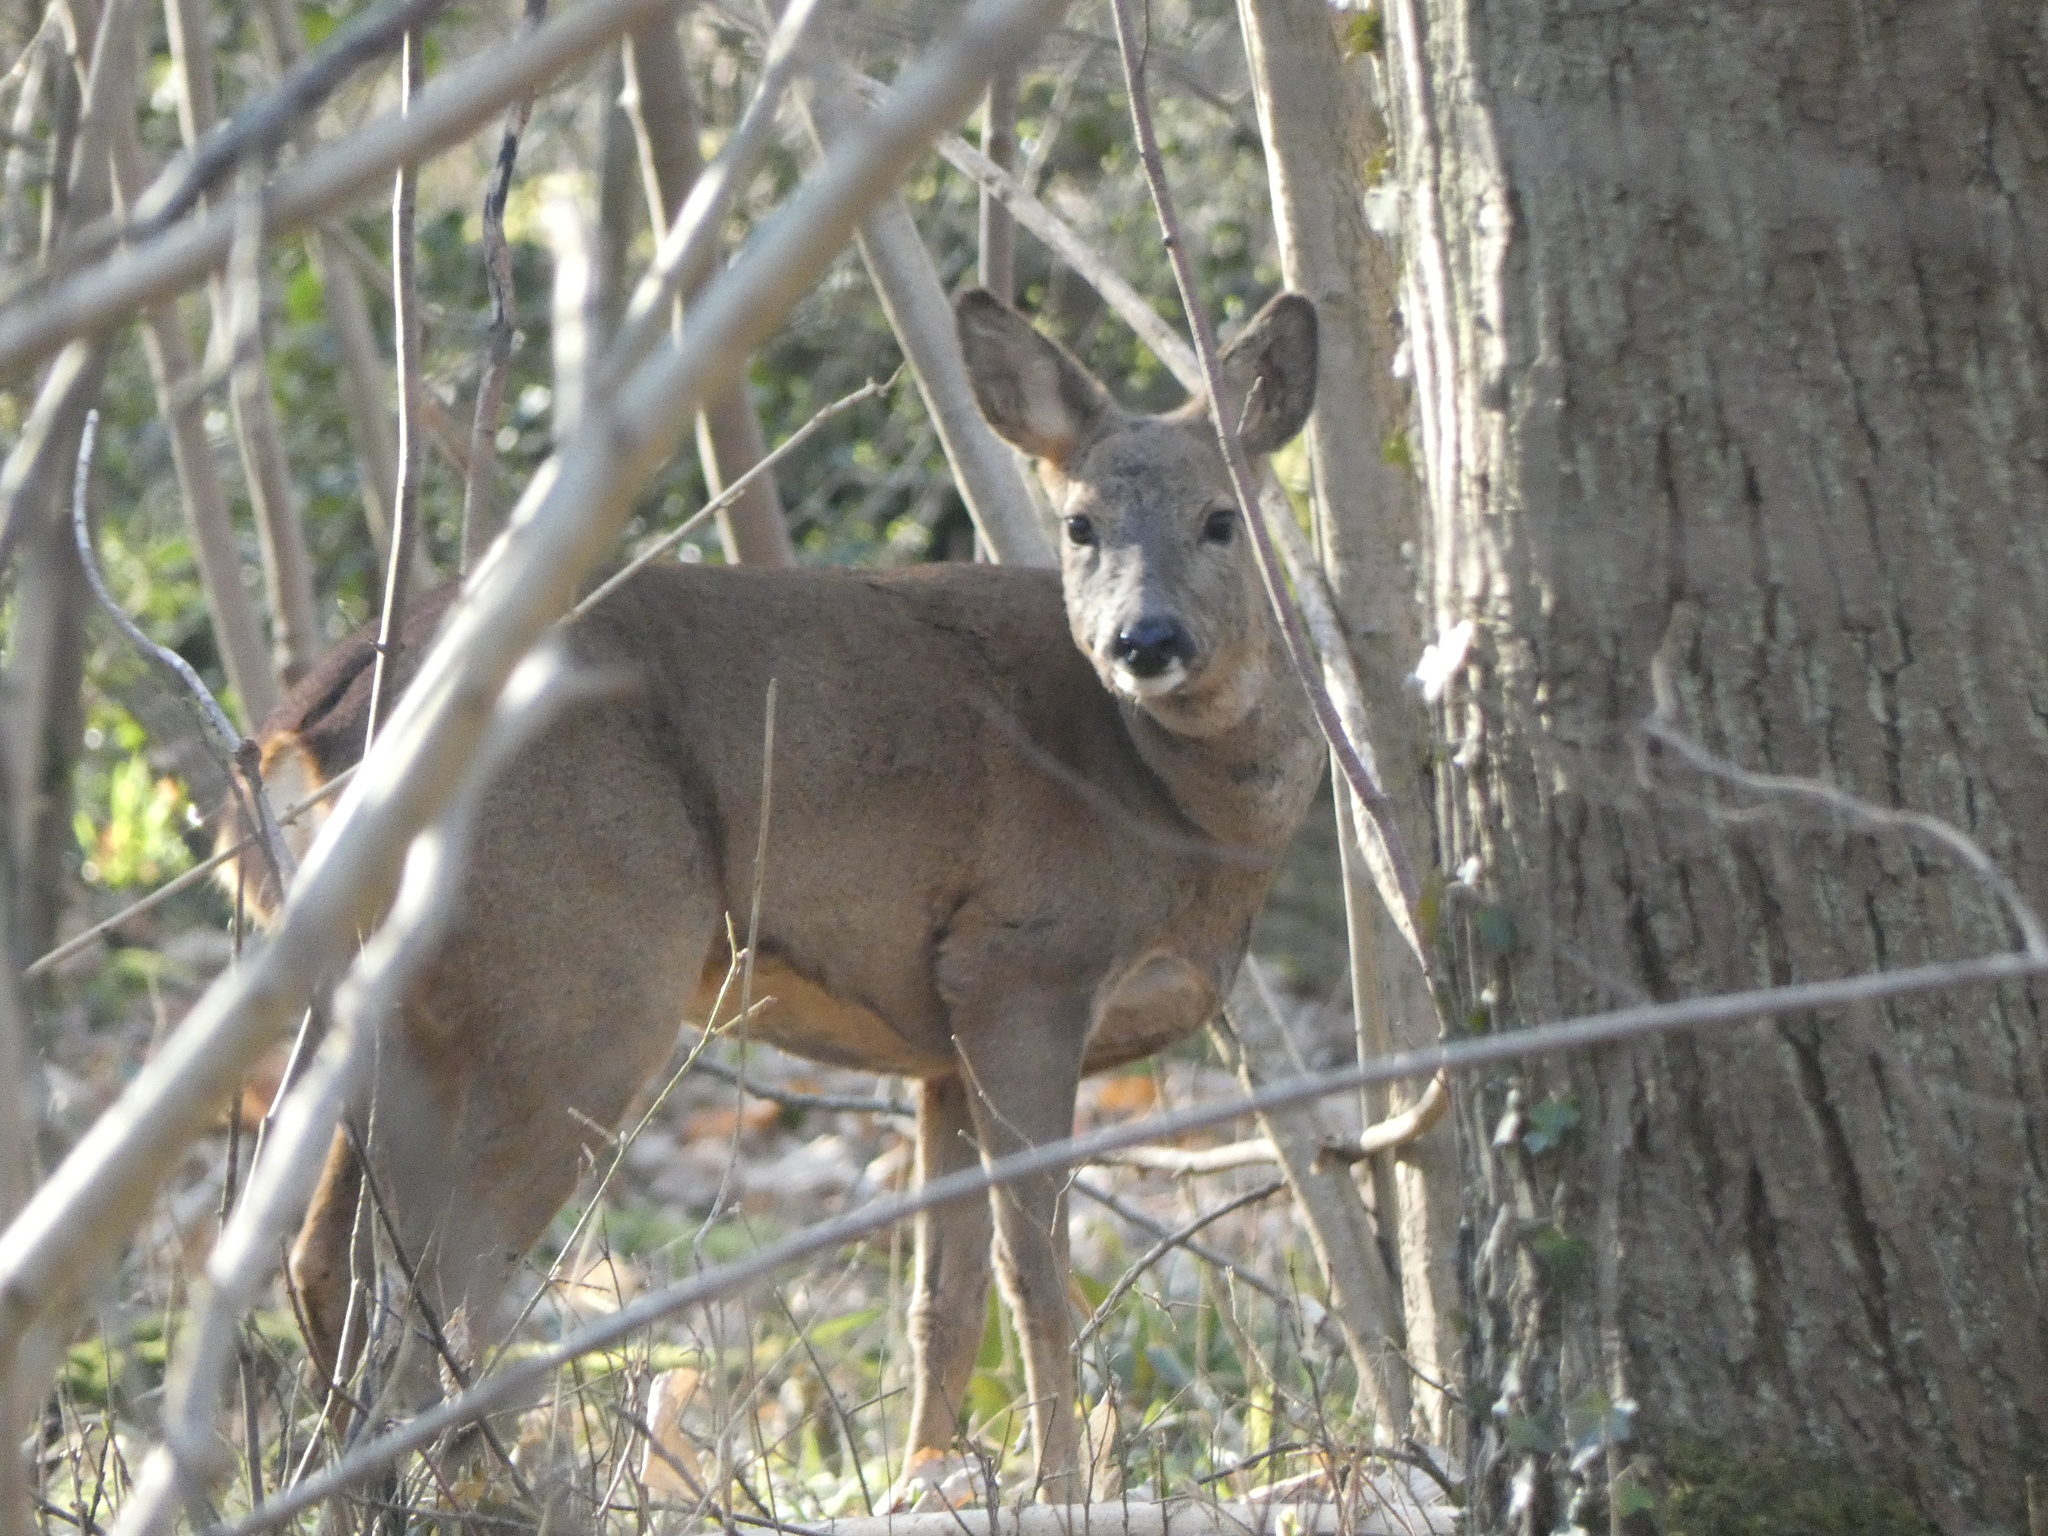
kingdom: Animalia
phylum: Chordata
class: Mammalia
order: Artiodactyla
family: Cervidae
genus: Capreolus
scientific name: Capreolus capreolus
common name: Western roe deer
